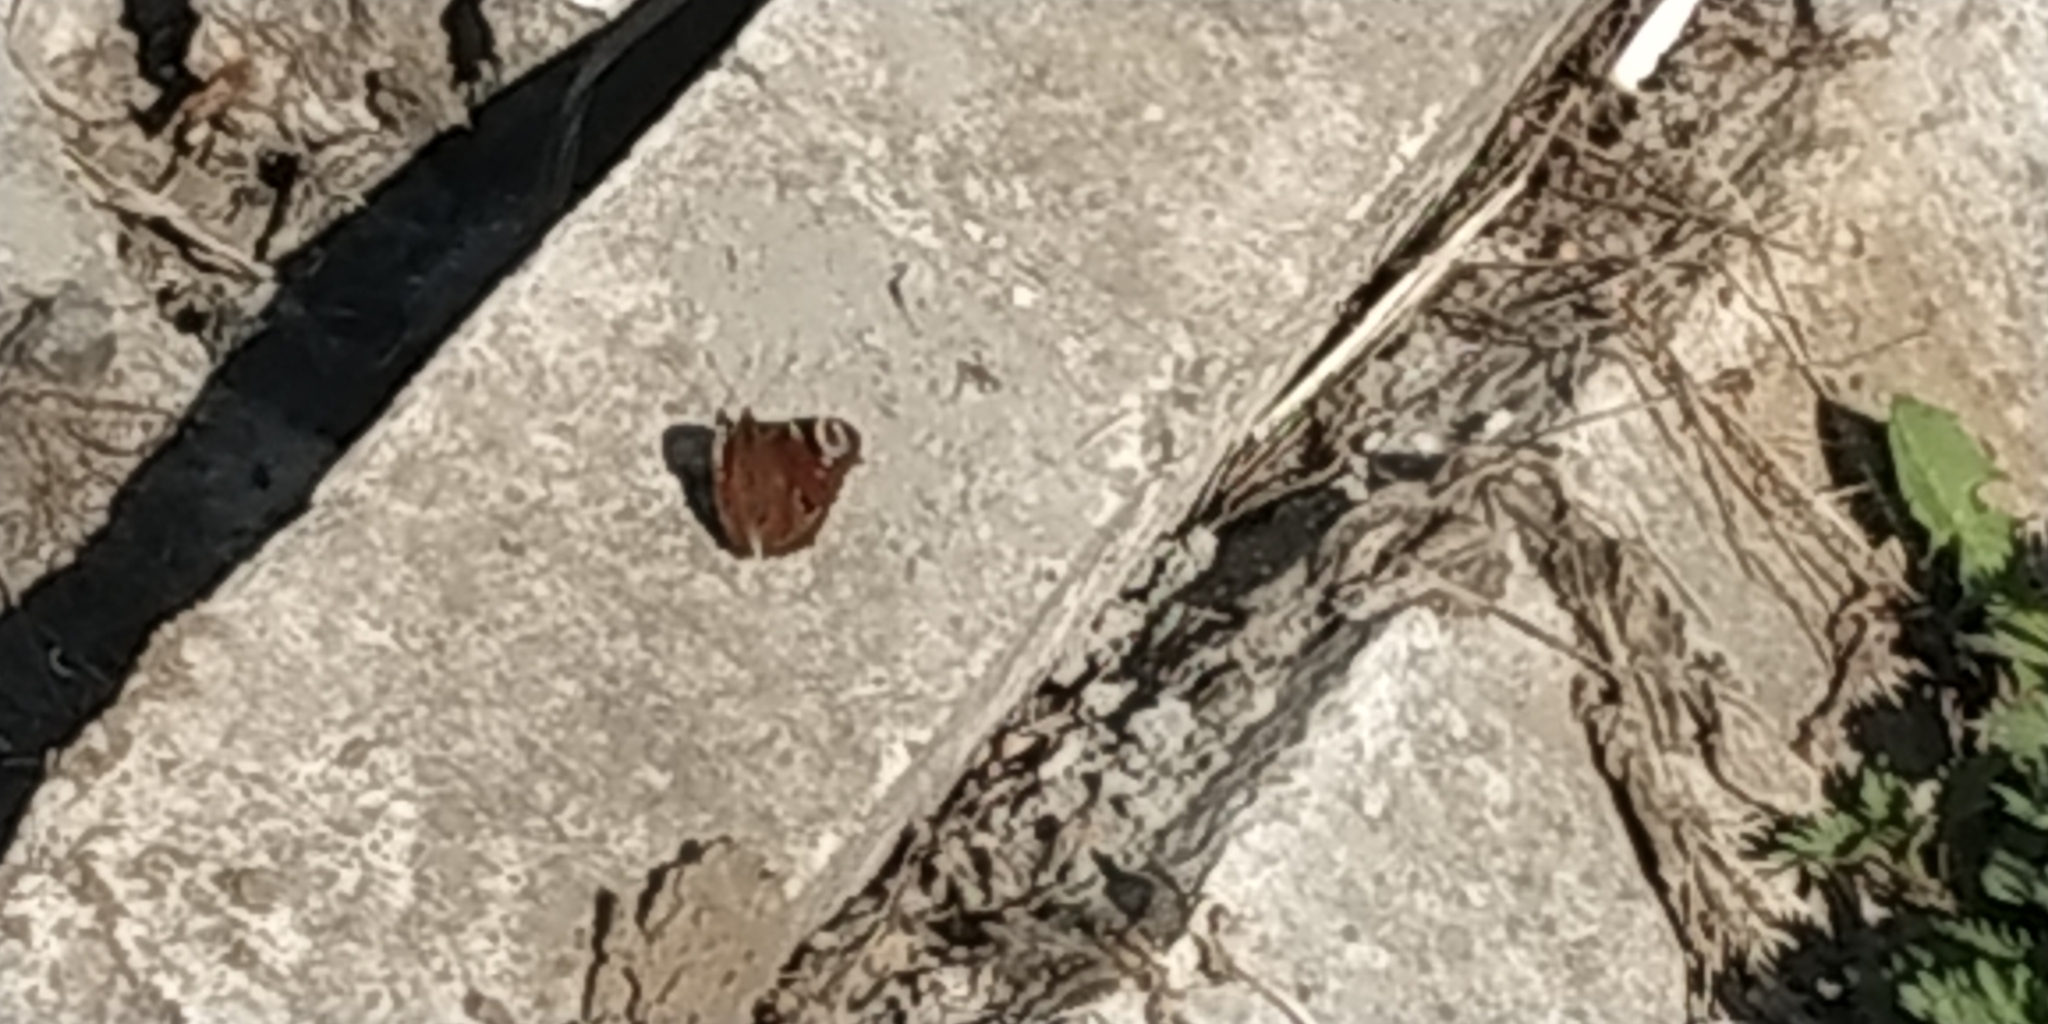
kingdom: Animalia
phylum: Arthropoda
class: Insecta
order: Lepidoptera
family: Nymphalidae
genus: Aglais
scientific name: Aglais io
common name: Peacock
